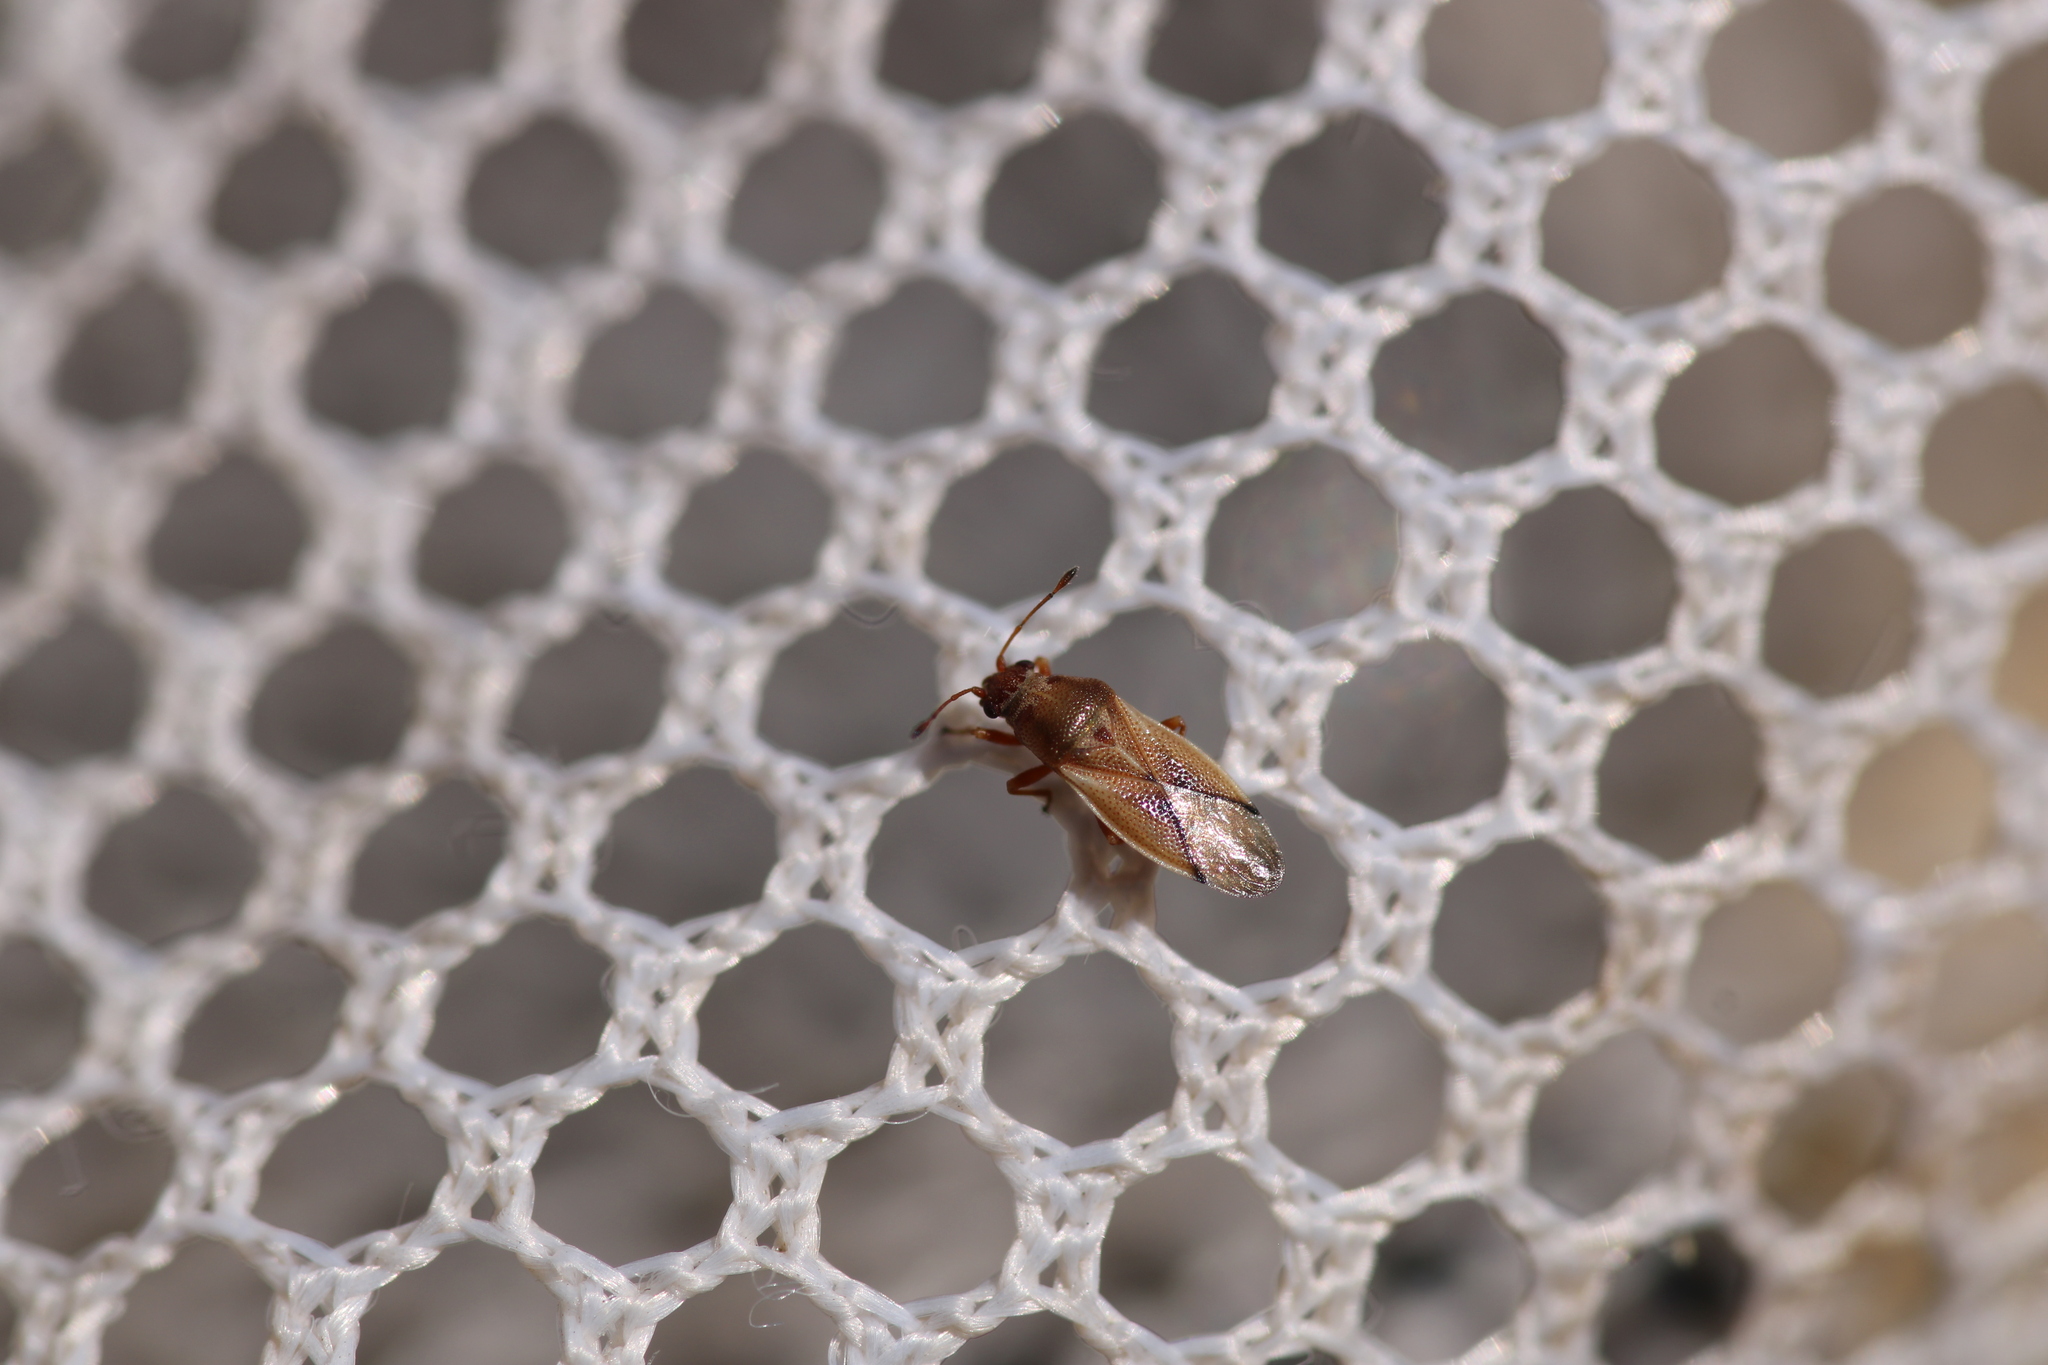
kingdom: Animalia
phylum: Arthropoda
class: Insecta
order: Hemiptera
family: Cymidae
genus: Cymus
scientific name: Cymus melanocephalus
